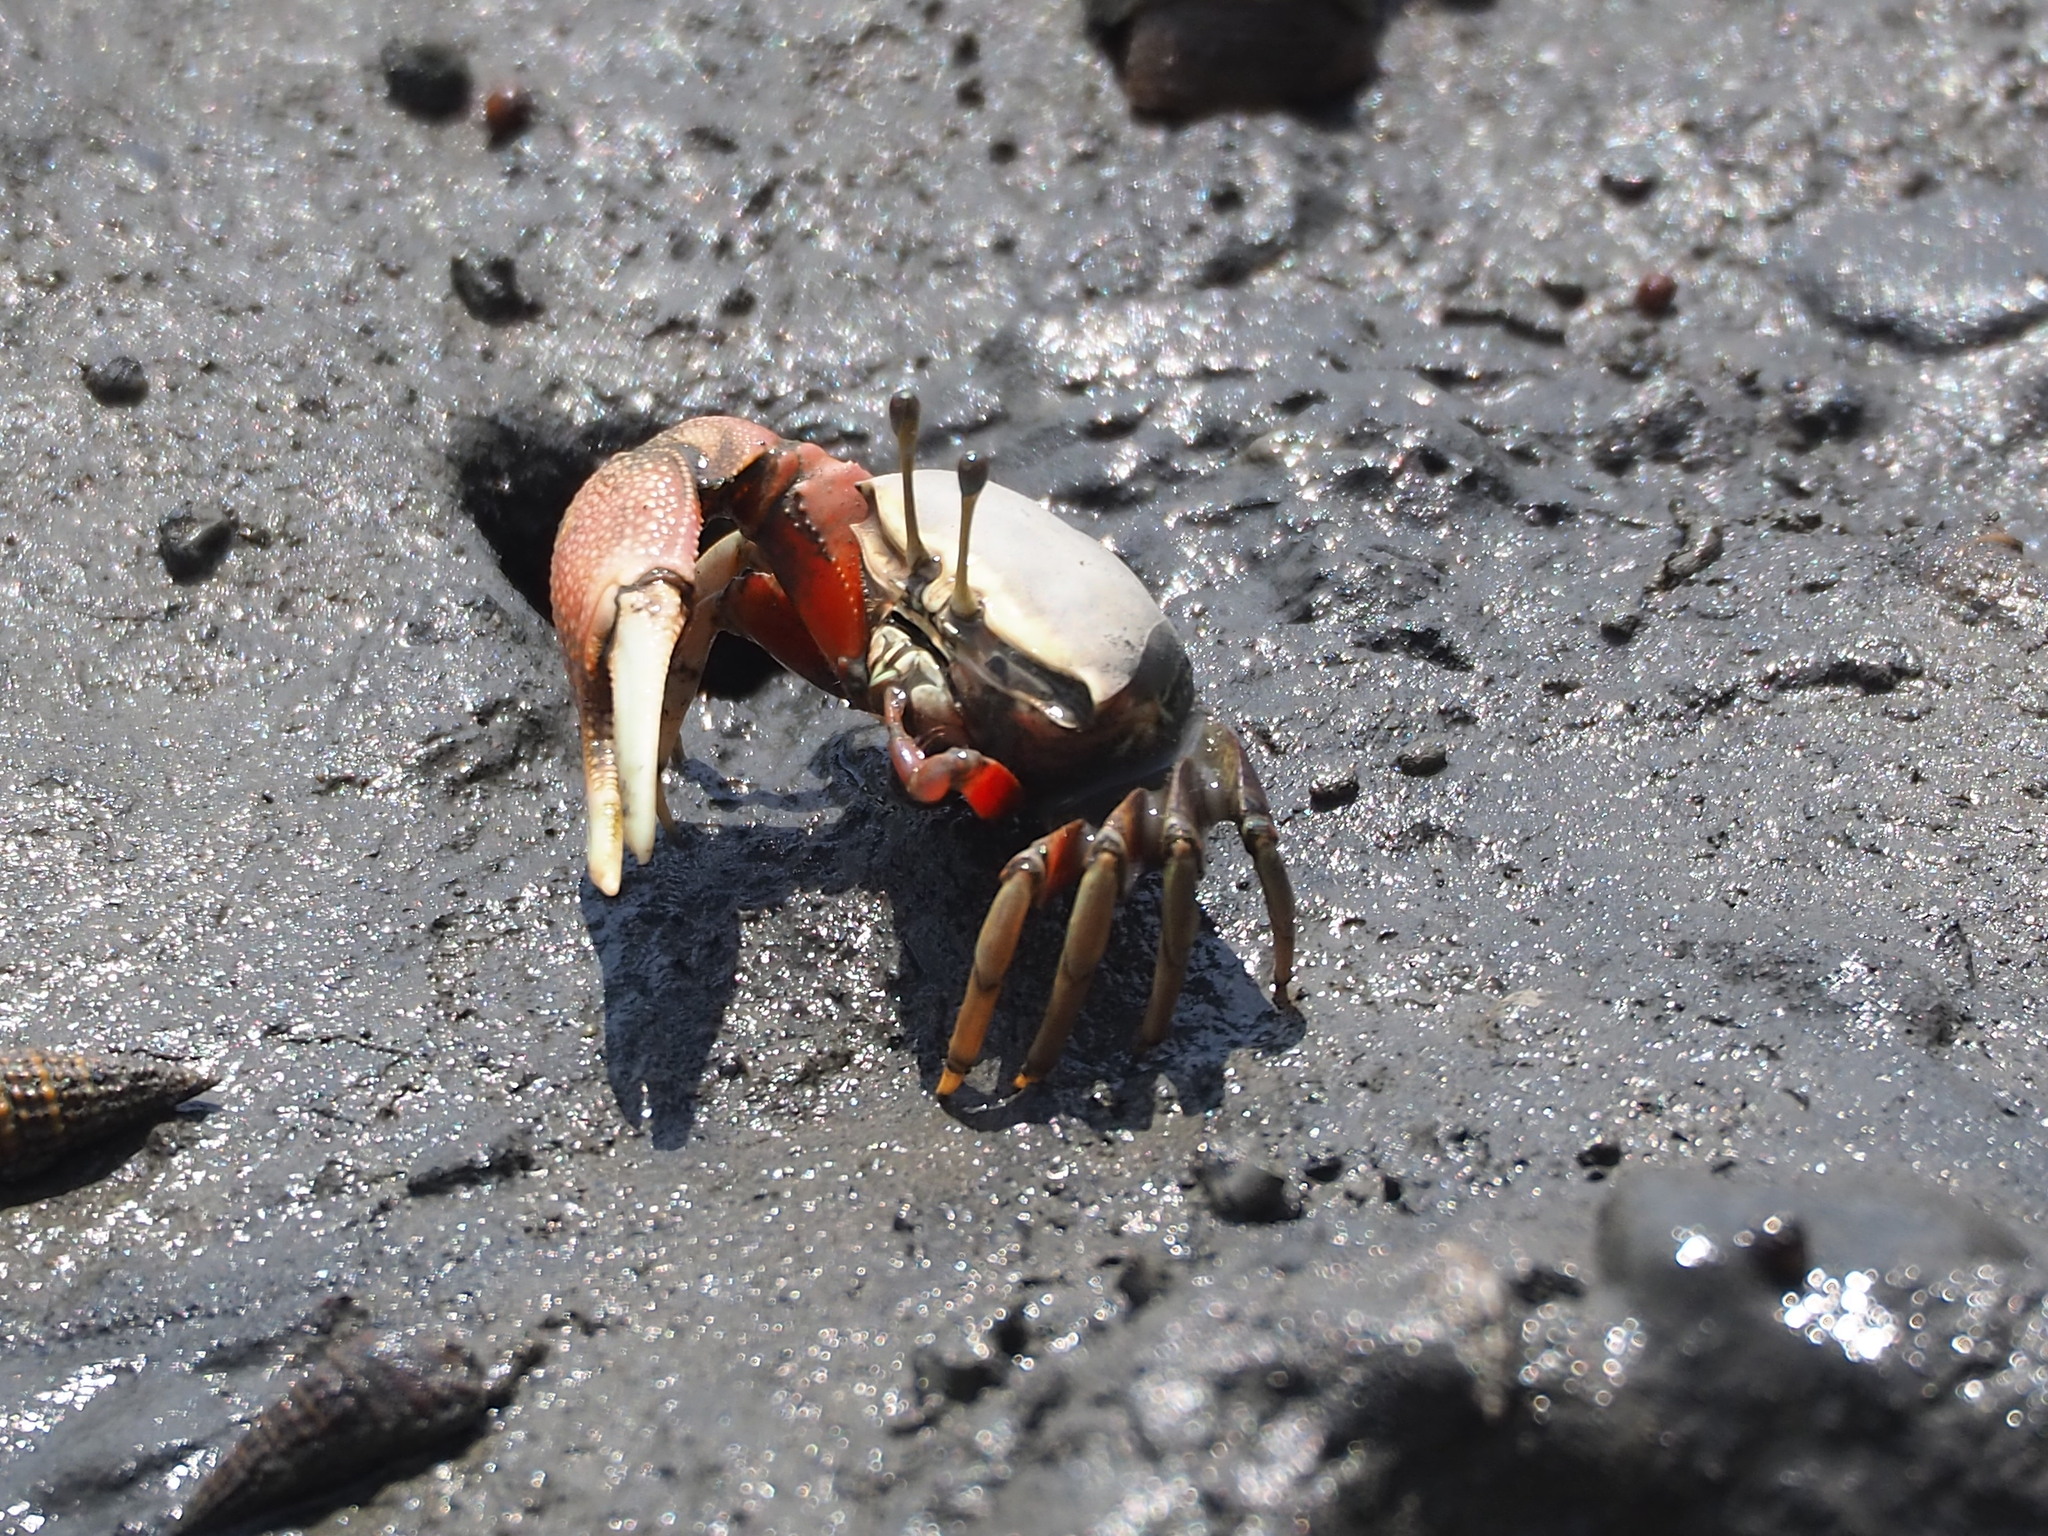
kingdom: Animalia
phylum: Arthropoda
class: Malacostraca
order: Decapoda
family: Ocypodidae
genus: Tubuca
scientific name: Tubuca arcuata
